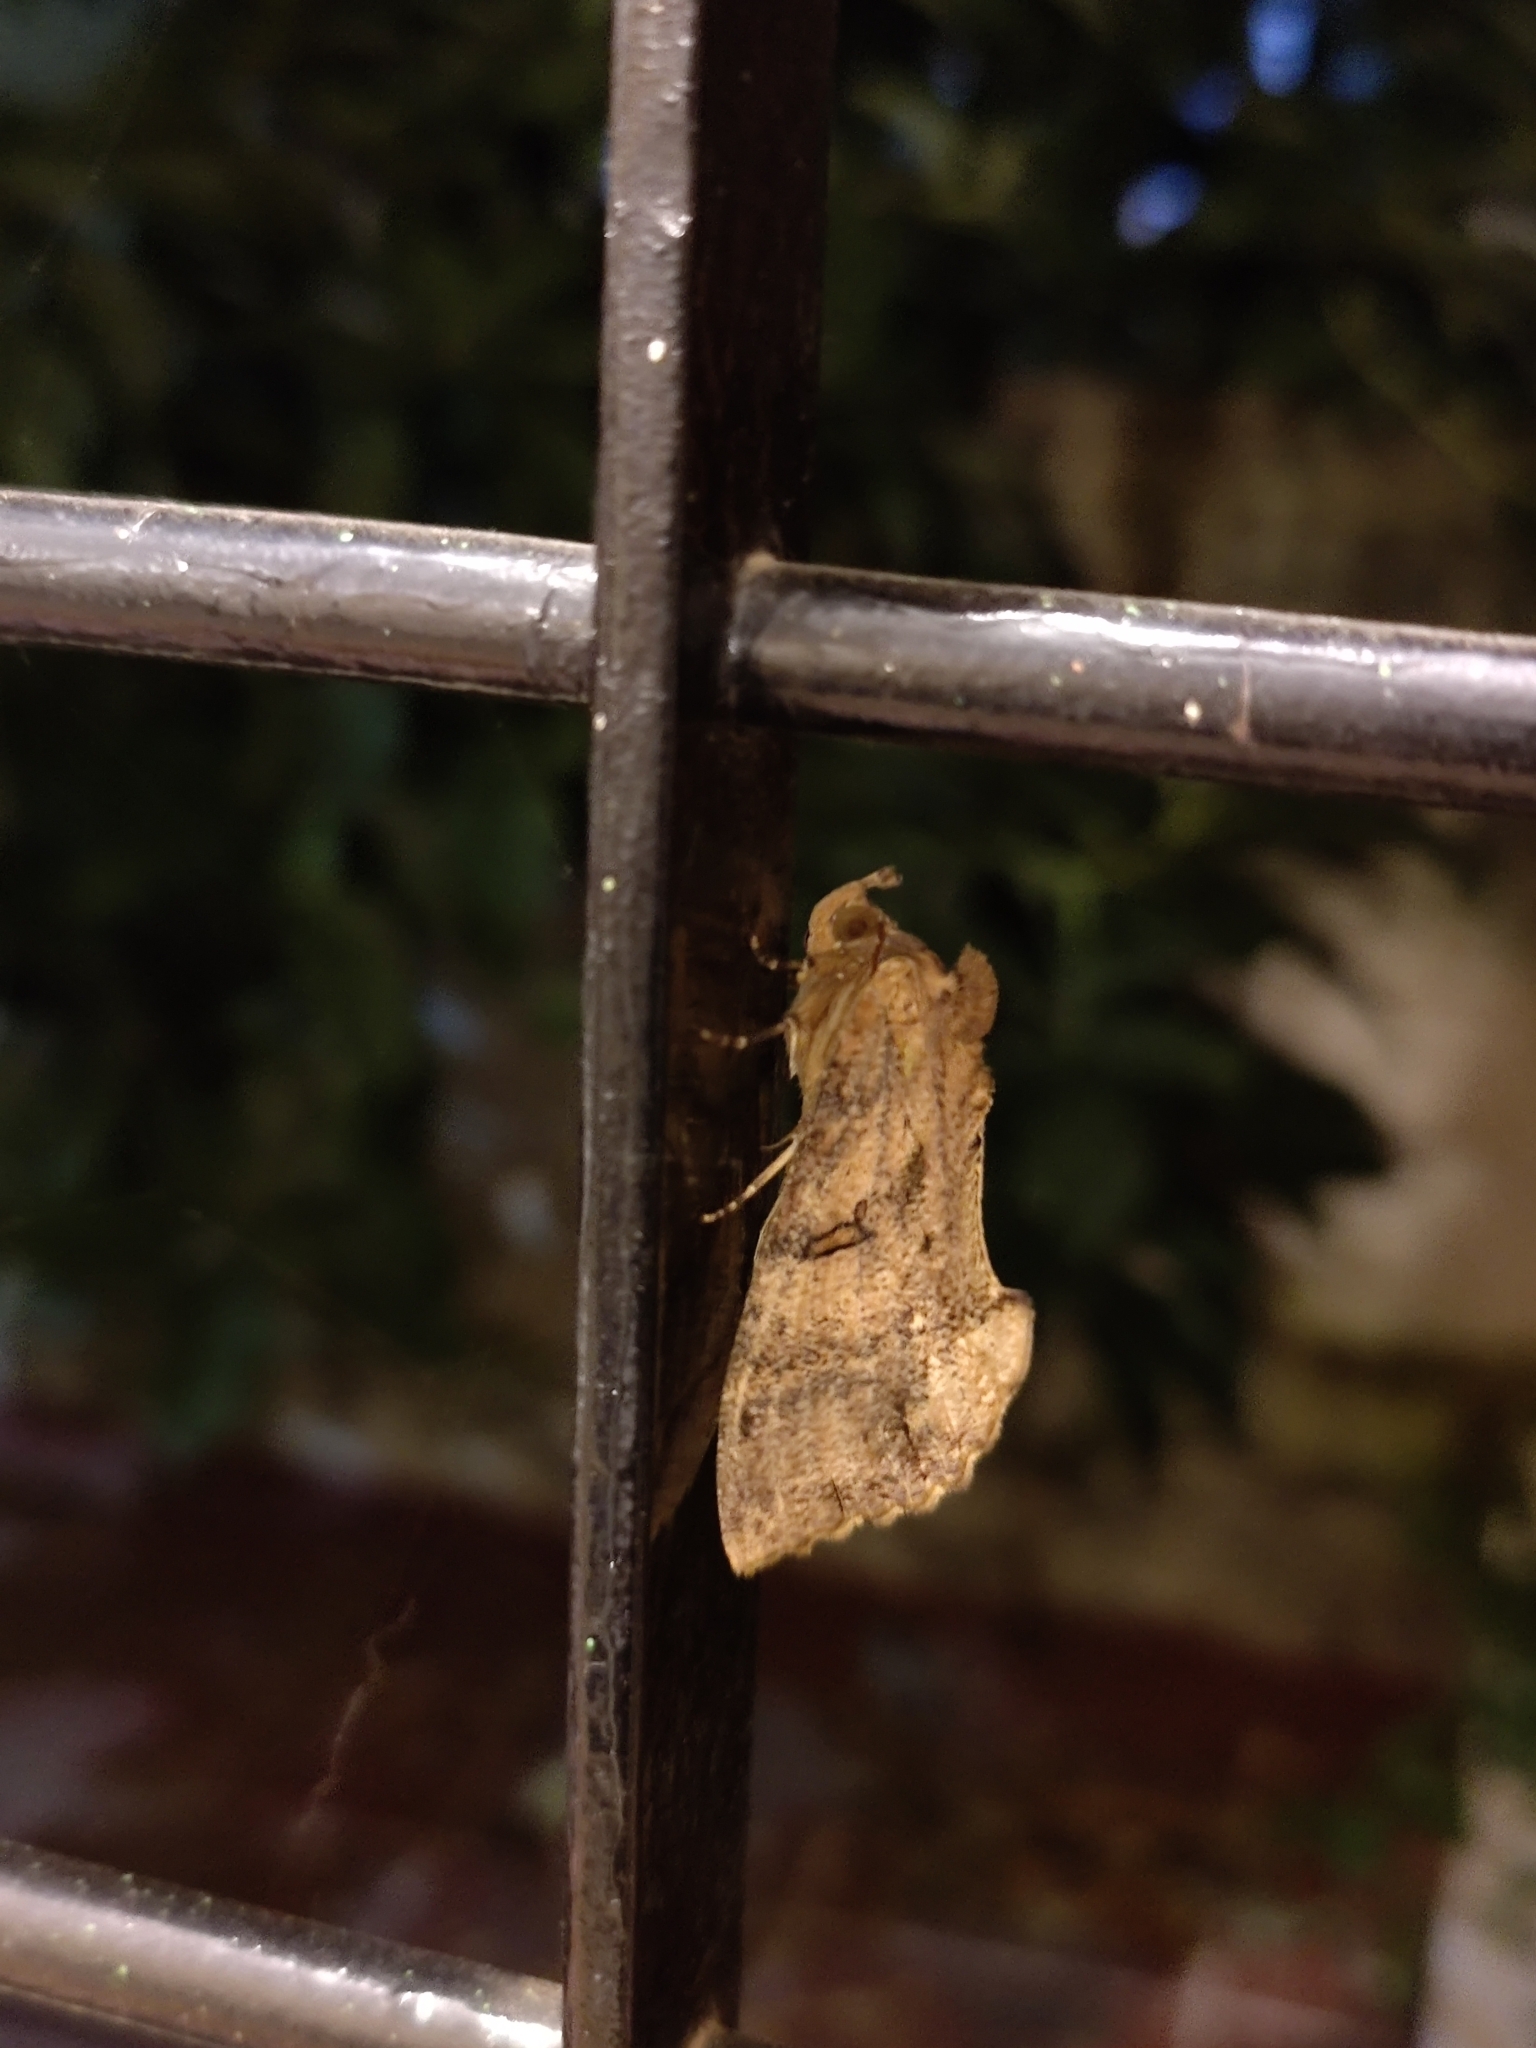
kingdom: Animalia
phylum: Arthropoda
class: Insecta
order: Lepidoptera
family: Erebidae
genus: Eudocima
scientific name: Eudocima cajeta
